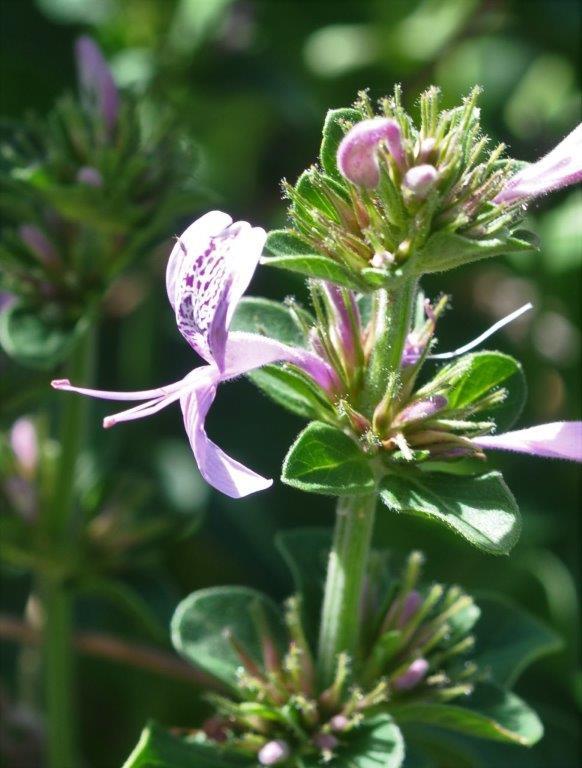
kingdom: Plantae
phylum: Tracheophyta
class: Magnoliopsida
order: Lamiales
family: Acanthaceae
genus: Hypoestes
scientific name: Hypoestes aristata
